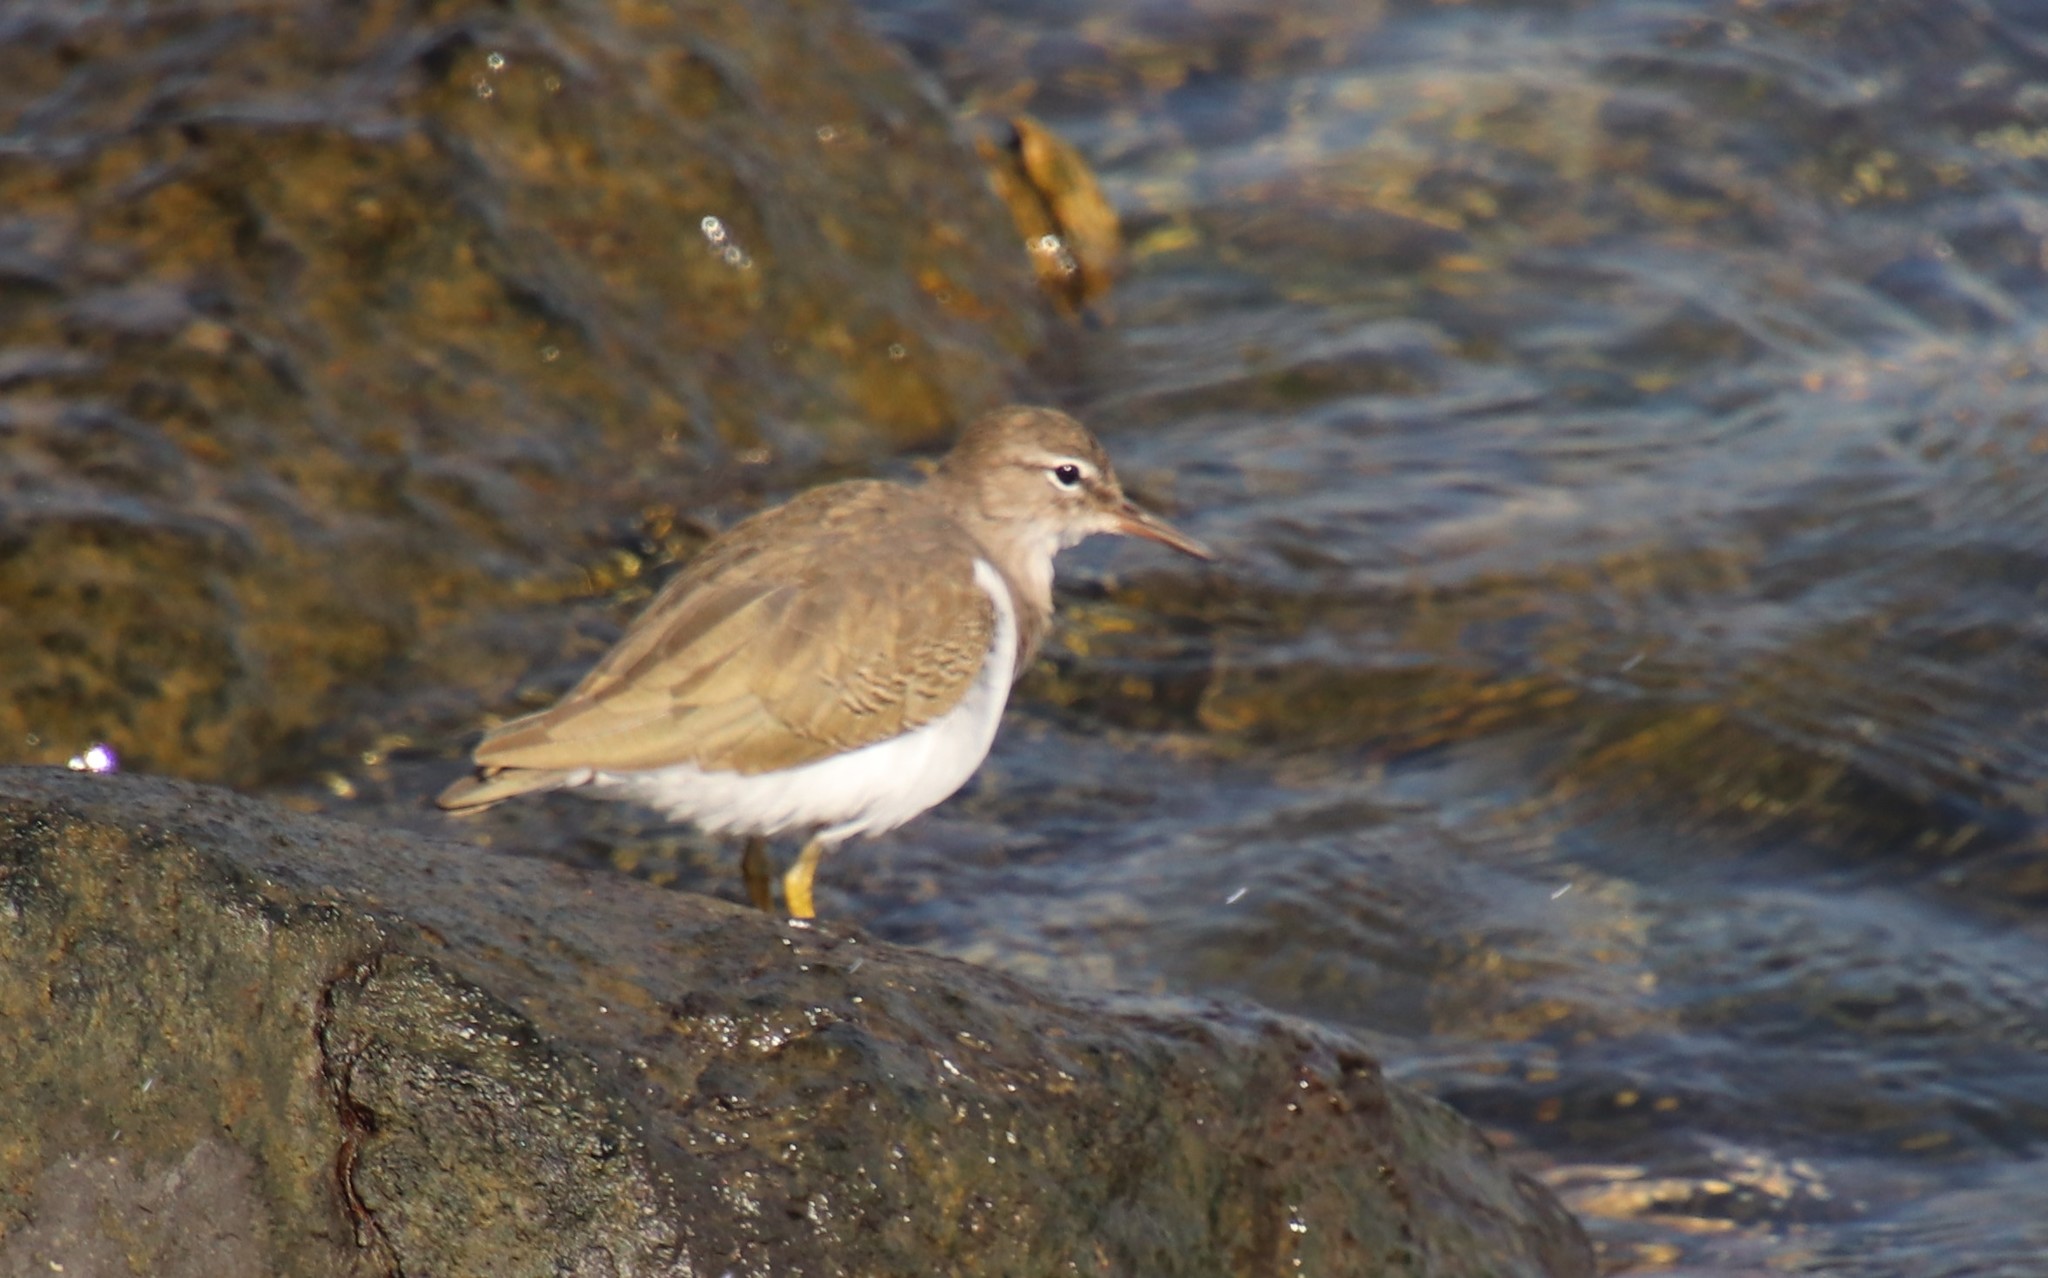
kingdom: Animalia
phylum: Chordata
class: Aves
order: Charadriiformes
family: Scolopacidae
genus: Actitis
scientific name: Actitis macularius
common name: Spotted sandpiper
